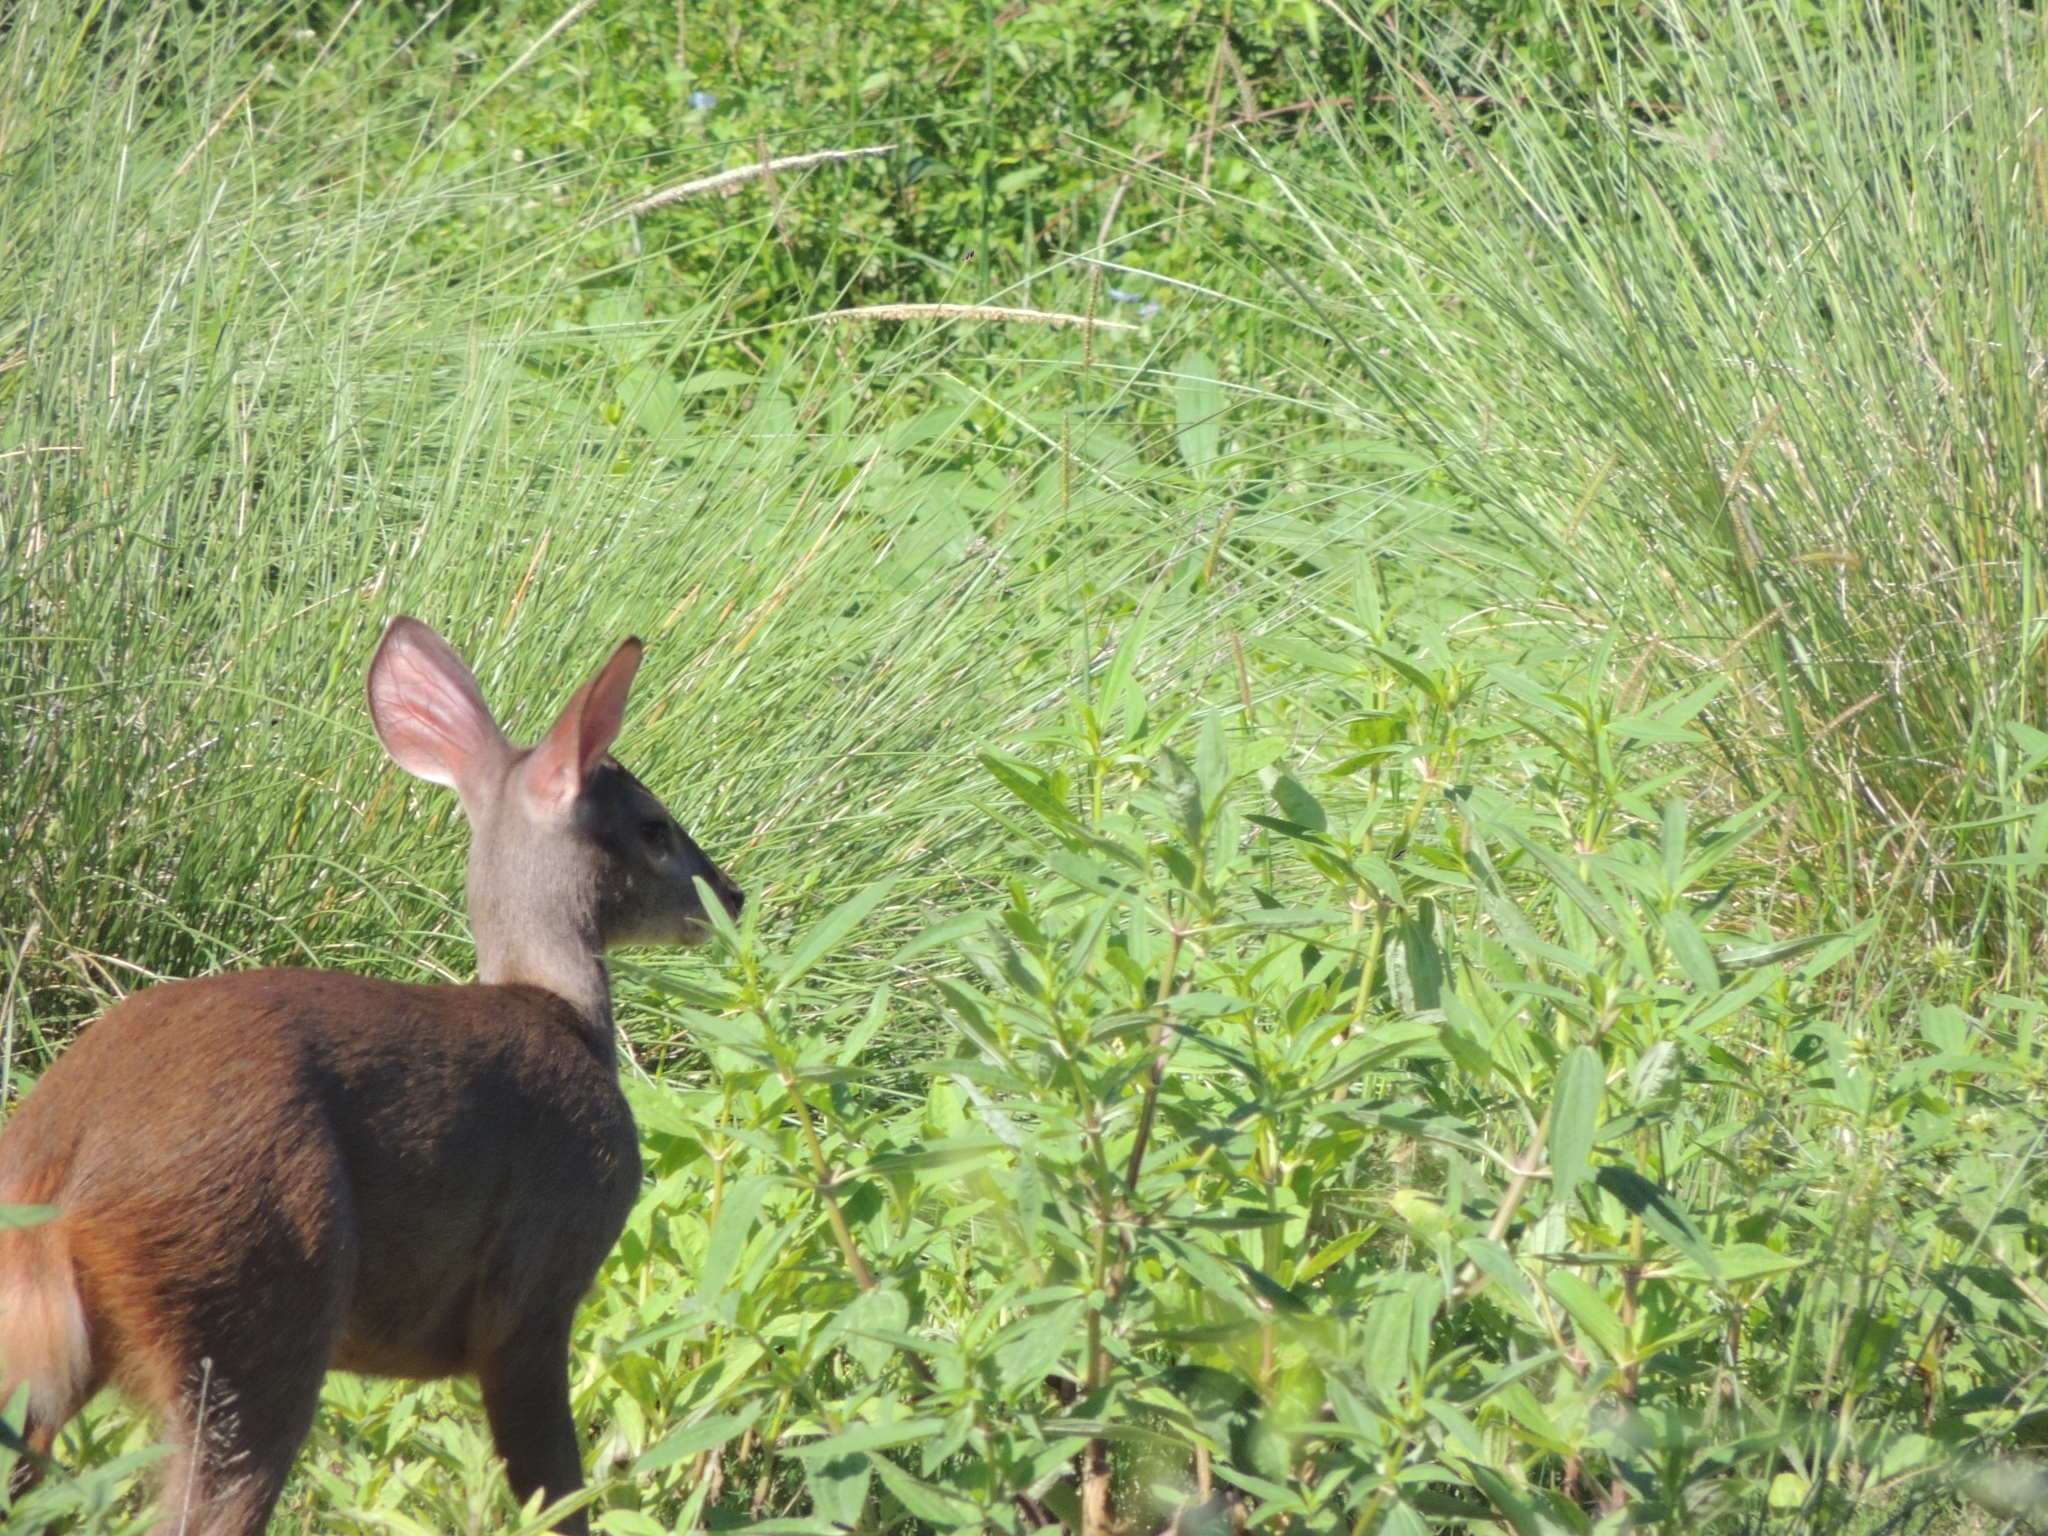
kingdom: Animalia
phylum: Chordata
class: Mammalia
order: Artiodactyla
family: Cervidae
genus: Mazama
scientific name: Mazama gouazoubira
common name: Gray brocket
